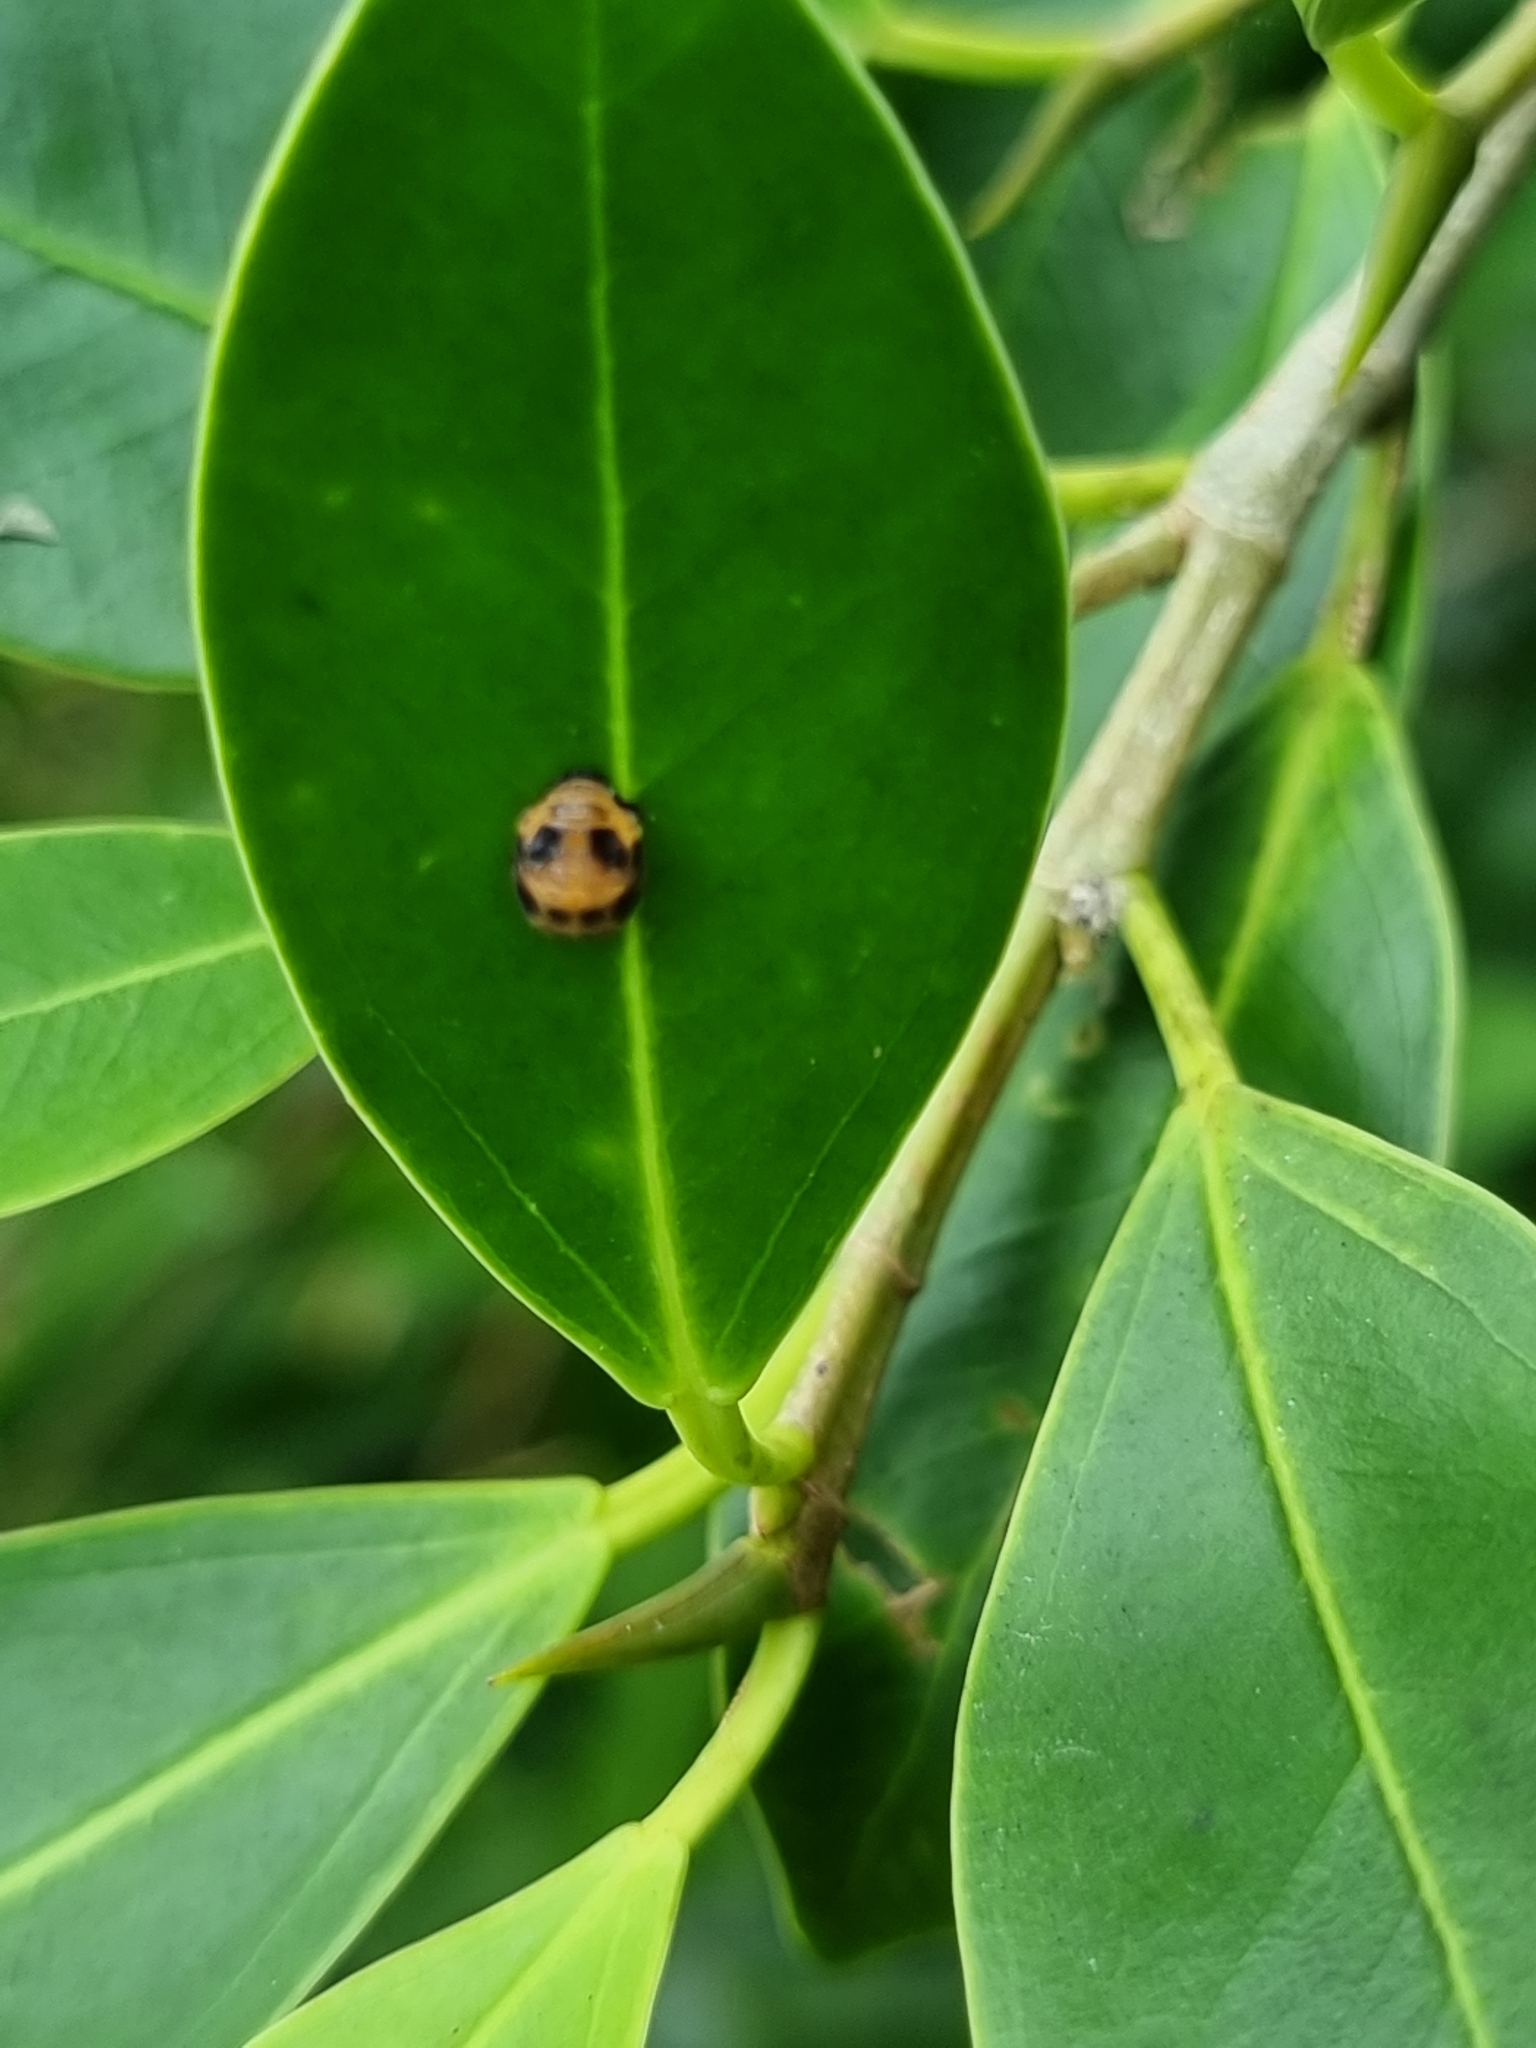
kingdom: Animalia
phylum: Arthropoda
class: Insecta
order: Coleoptera
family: Coccinellidae
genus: Coelophora
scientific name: Coelophora inaequalis
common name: Common australian lady beetle
